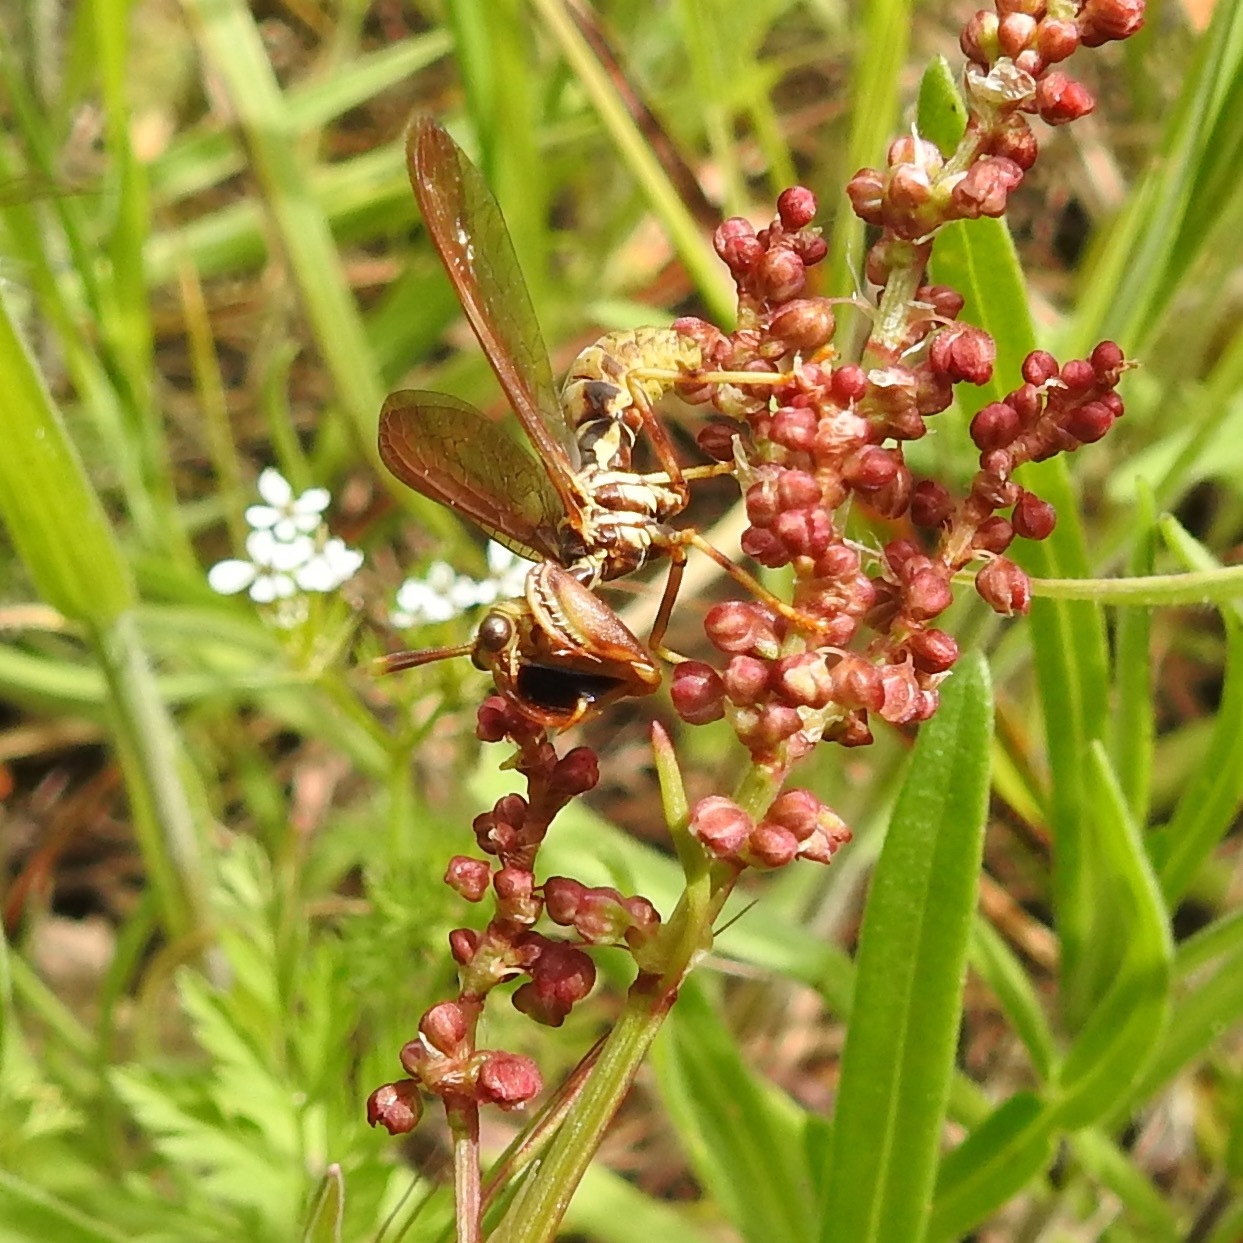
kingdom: Plantae
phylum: Tracheophyta
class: Magnoliopsida
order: Caryophyllales
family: Polygonaceae
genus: Rumex
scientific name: Rumex acetosella
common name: Common sheep sorrel
